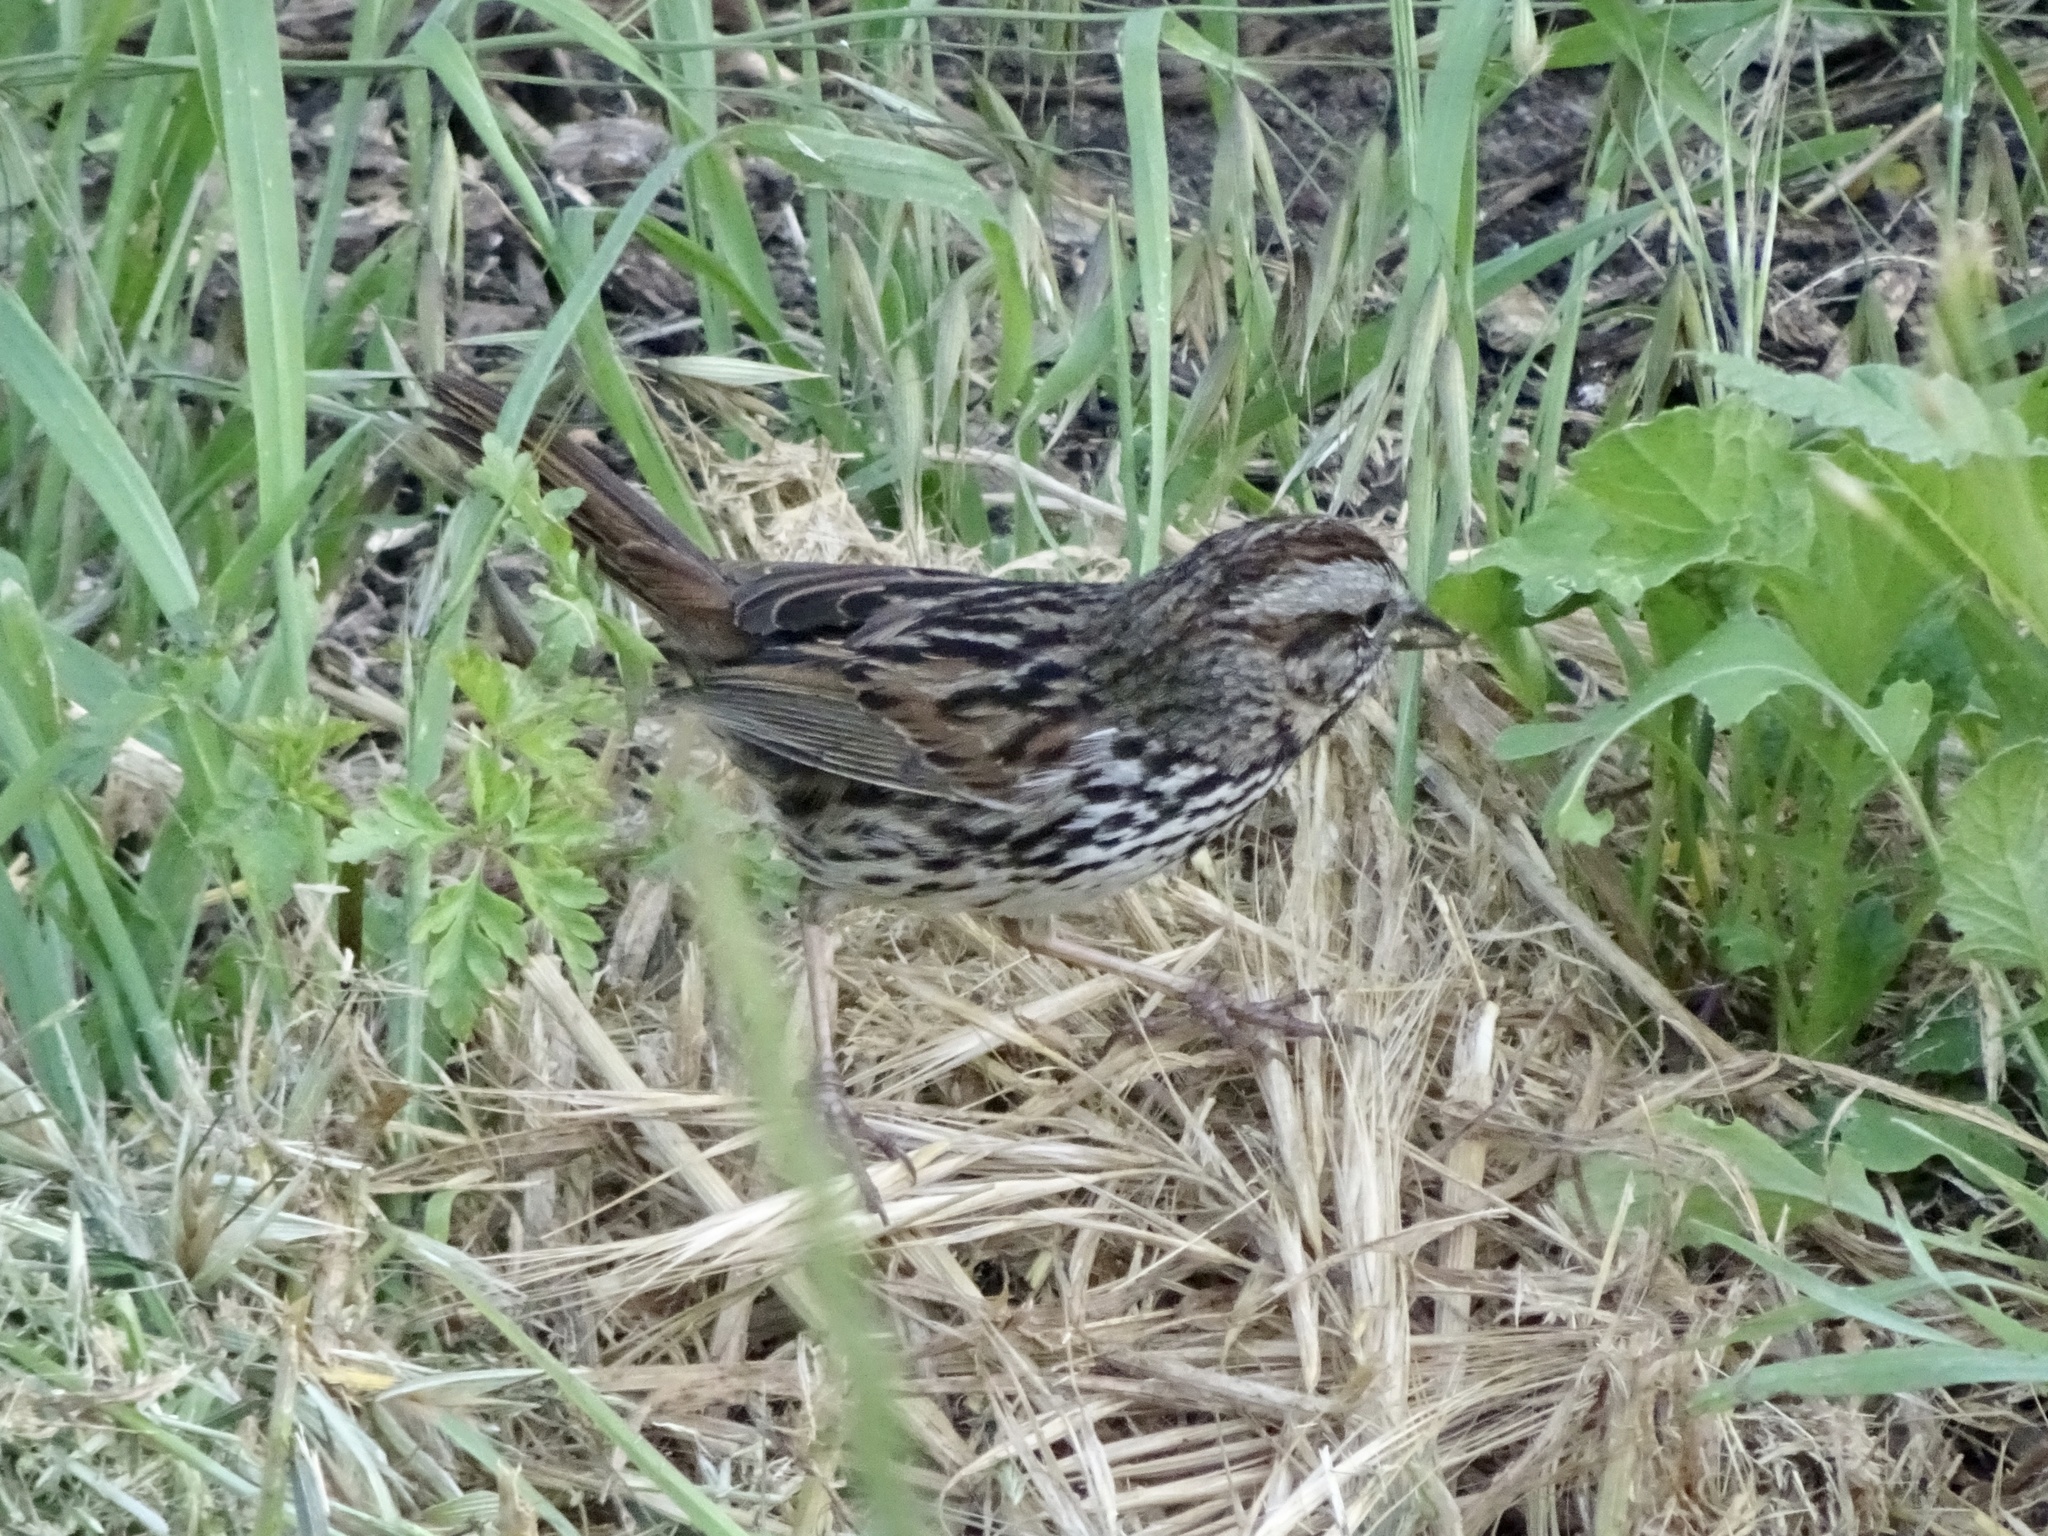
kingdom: Animalia
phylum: Chordata
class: Aves
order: Passeriformes
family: Passerellidae
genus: Melospiza
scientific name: Melospiza melodia
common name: Song sparrow
